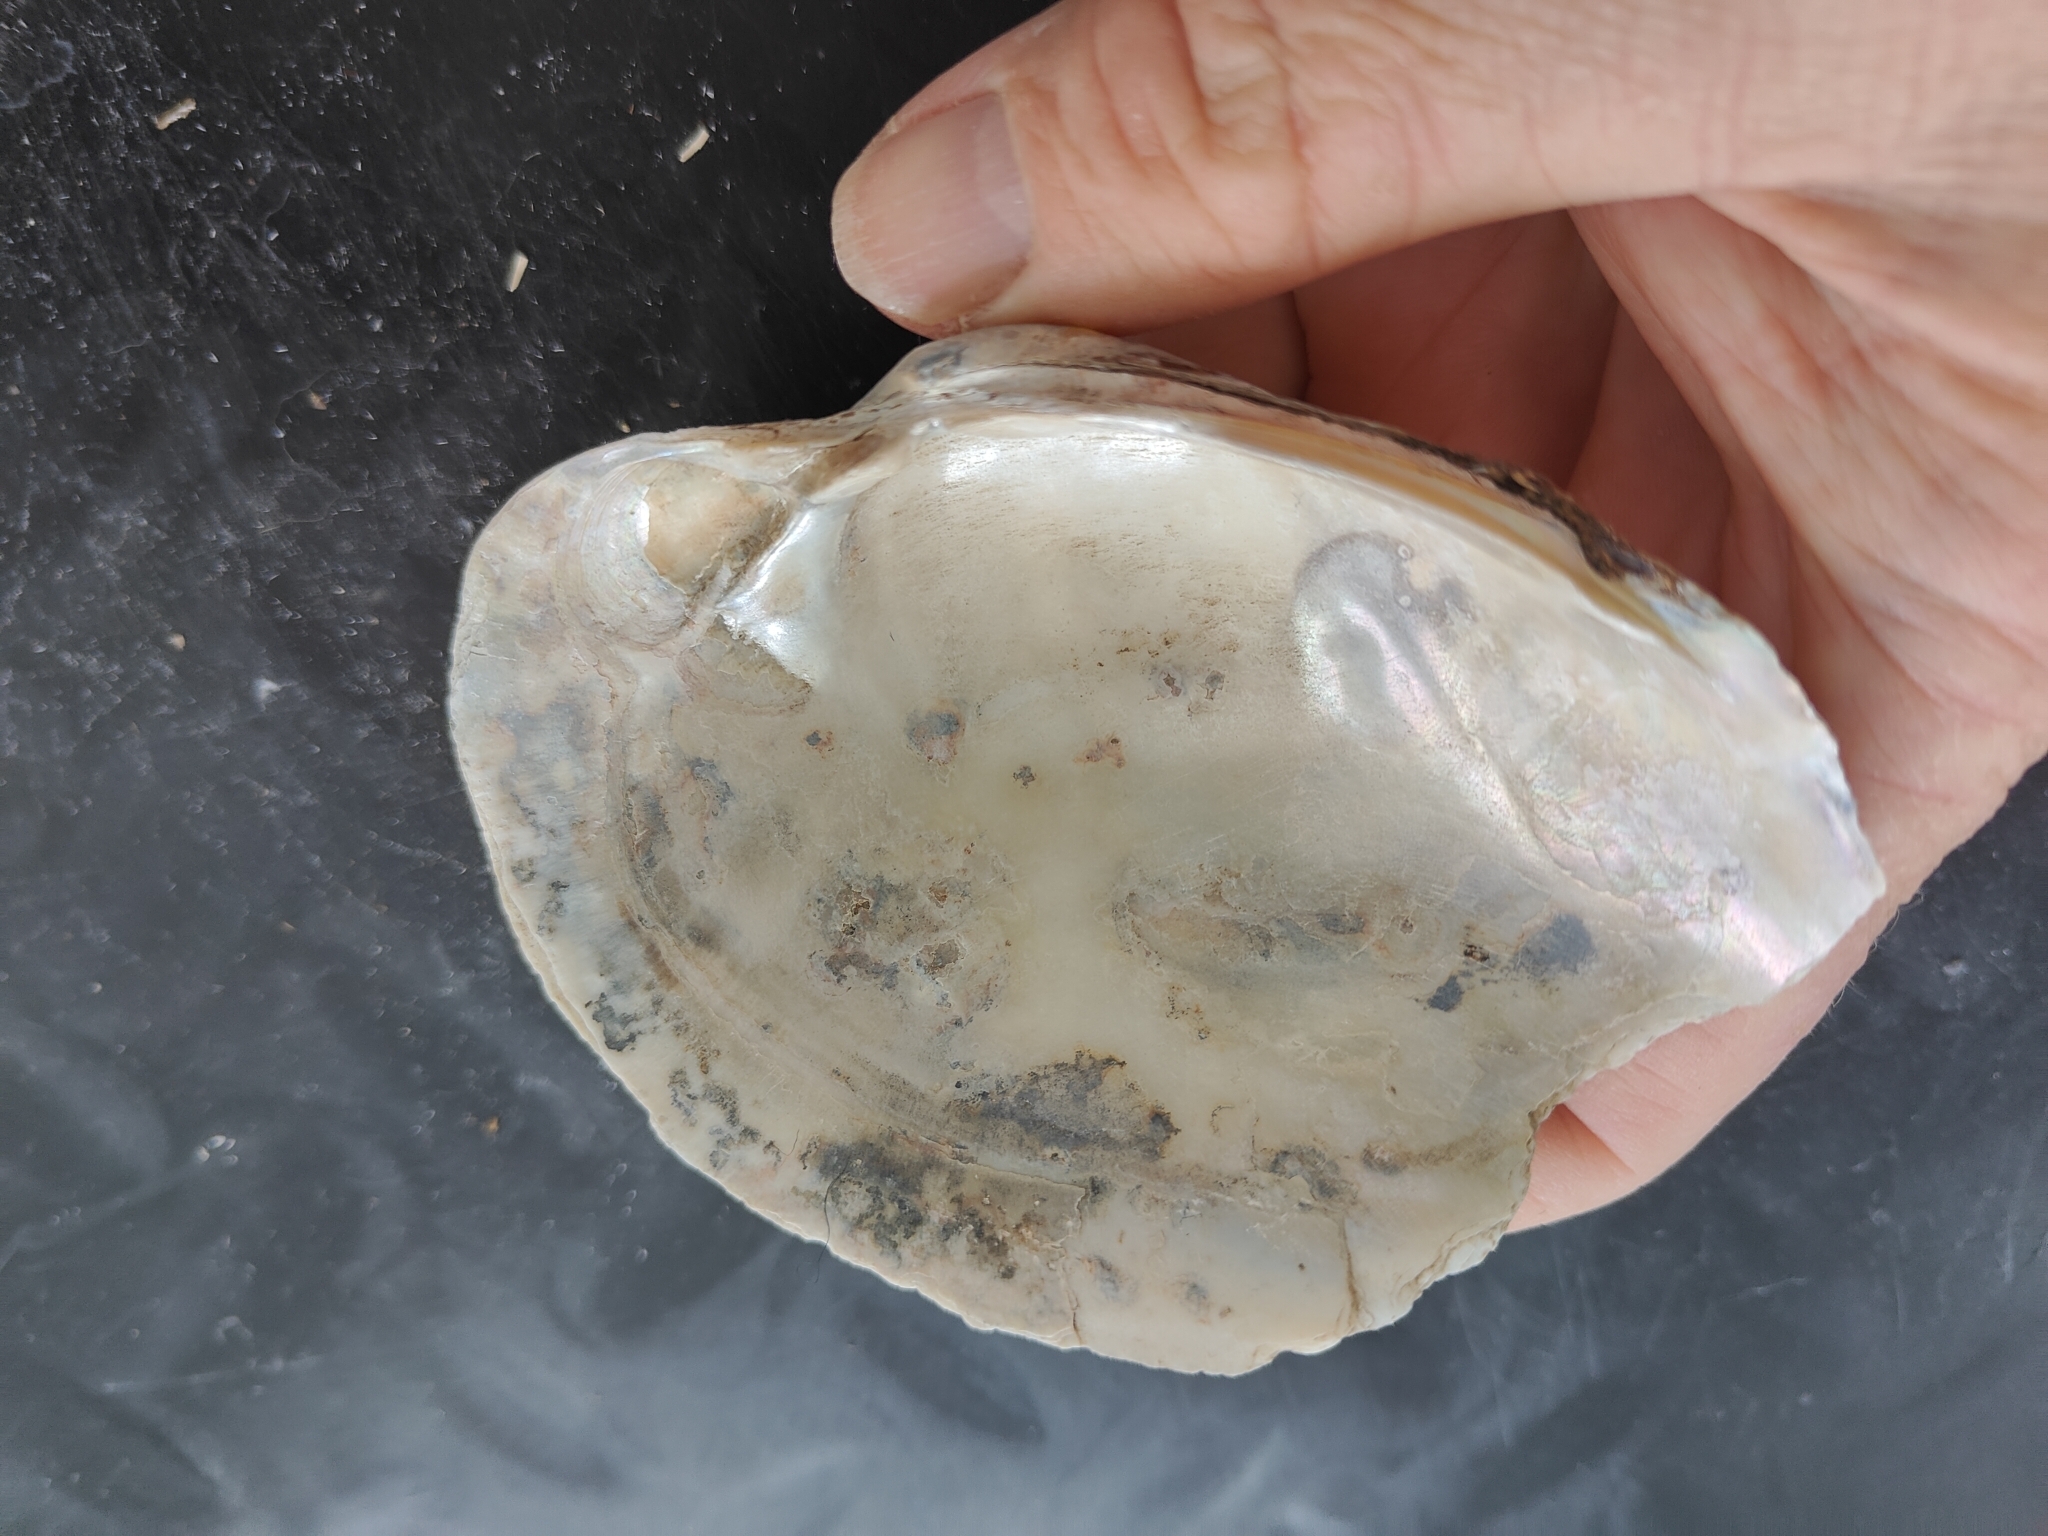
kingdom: Animalia
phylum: Mollusca
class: Bivalvia
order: Unionida
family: Unionidae
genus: Lampsilis
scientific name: Lampsilis cardium
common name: Plain pocketbook
